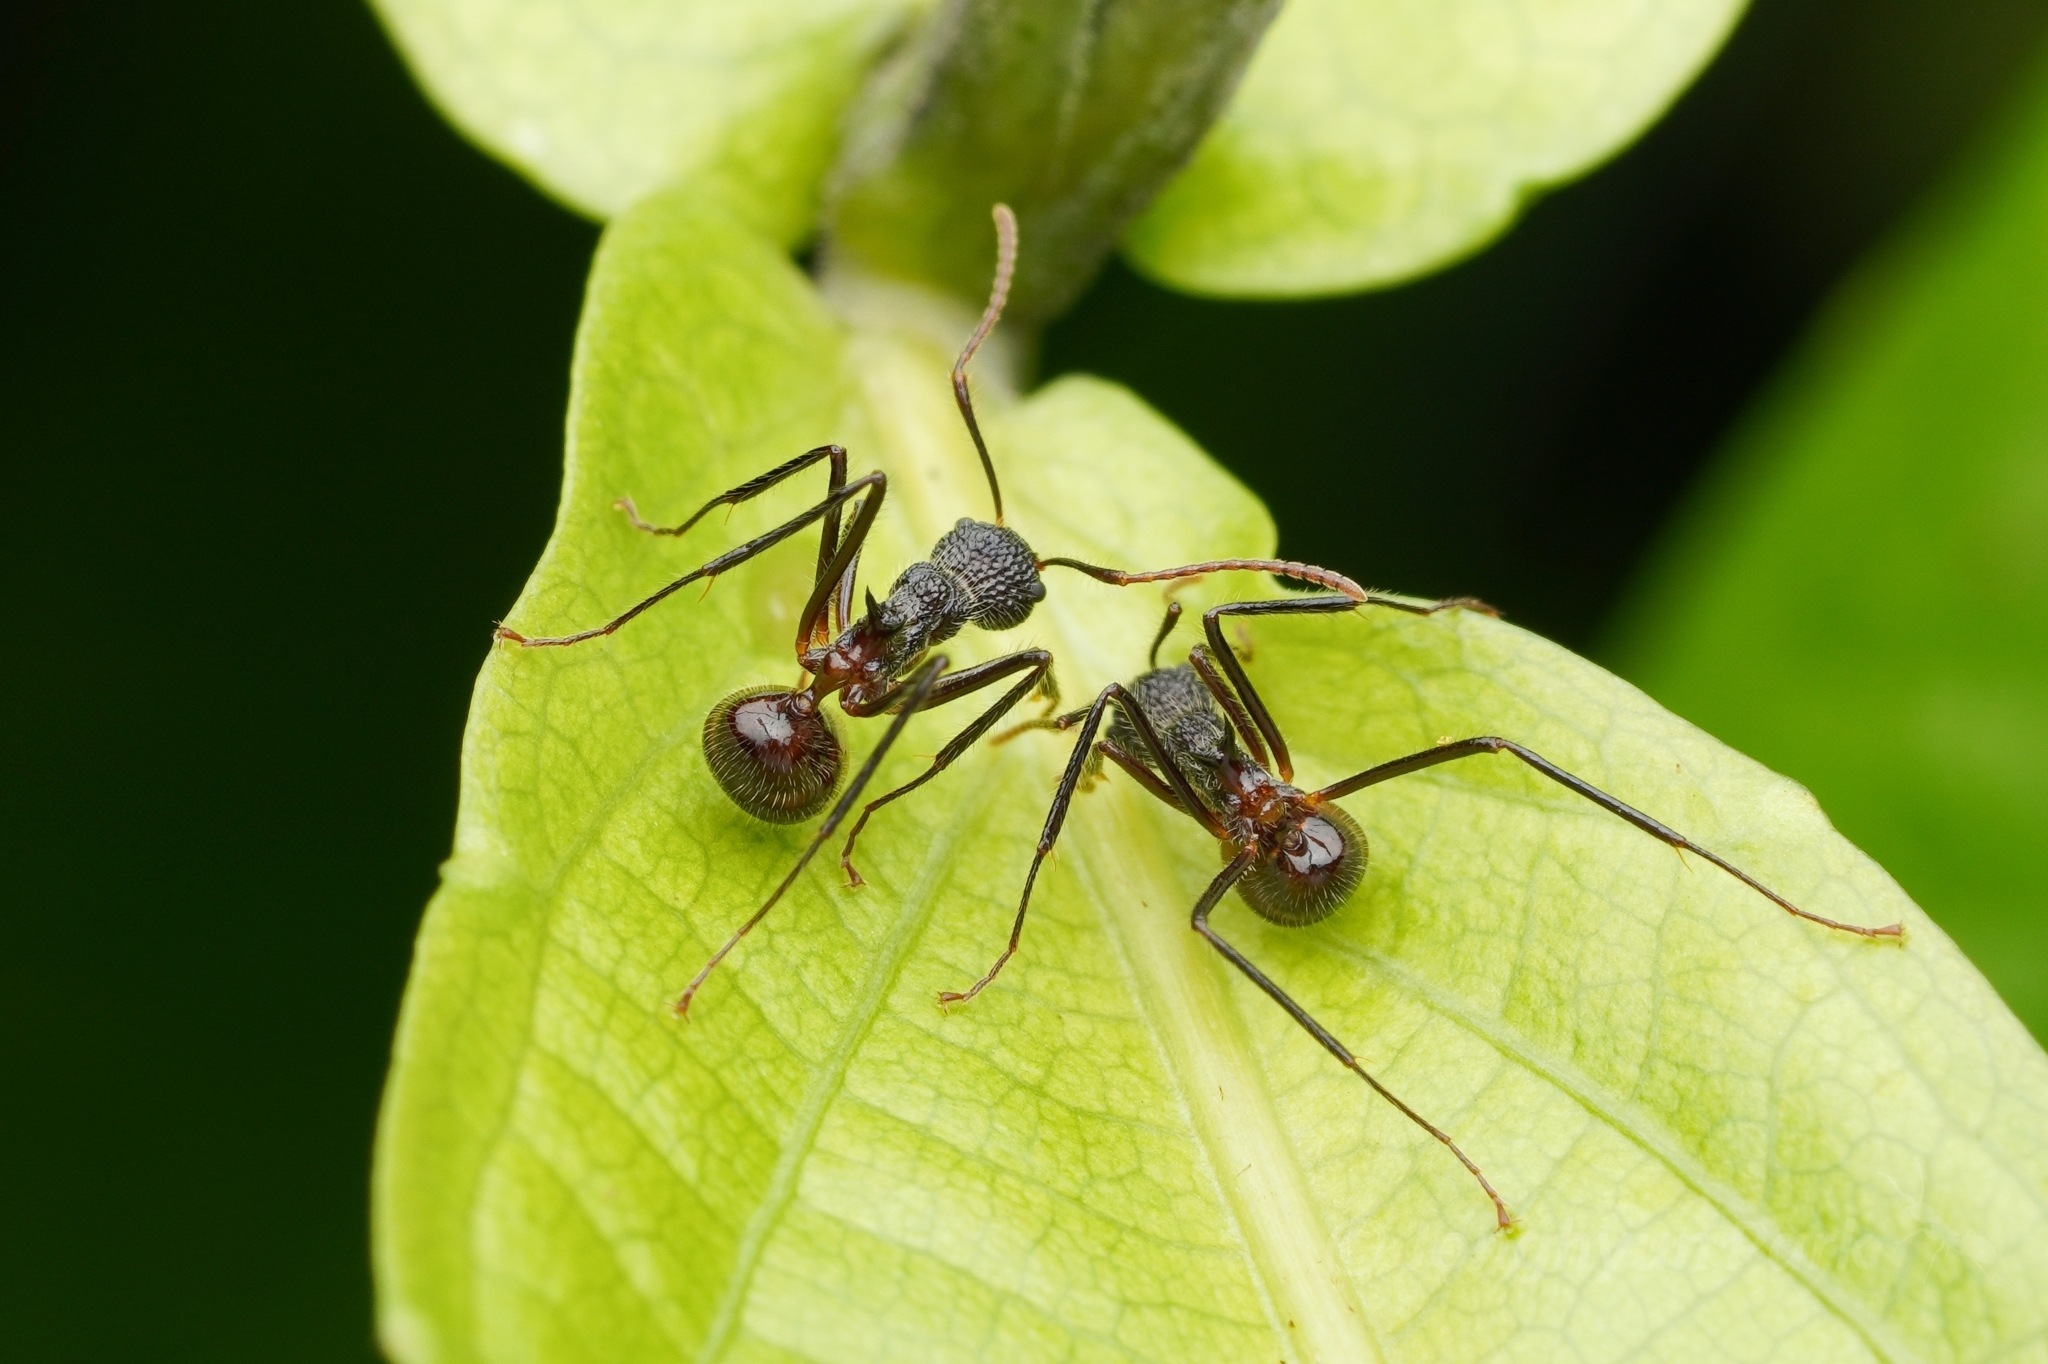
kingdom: Animalia
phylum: Arthropoda
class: Insecta
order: Hymenoptera
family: Formicidae
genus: Dolichoderus
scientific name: Dolichoderus indrapurensis
